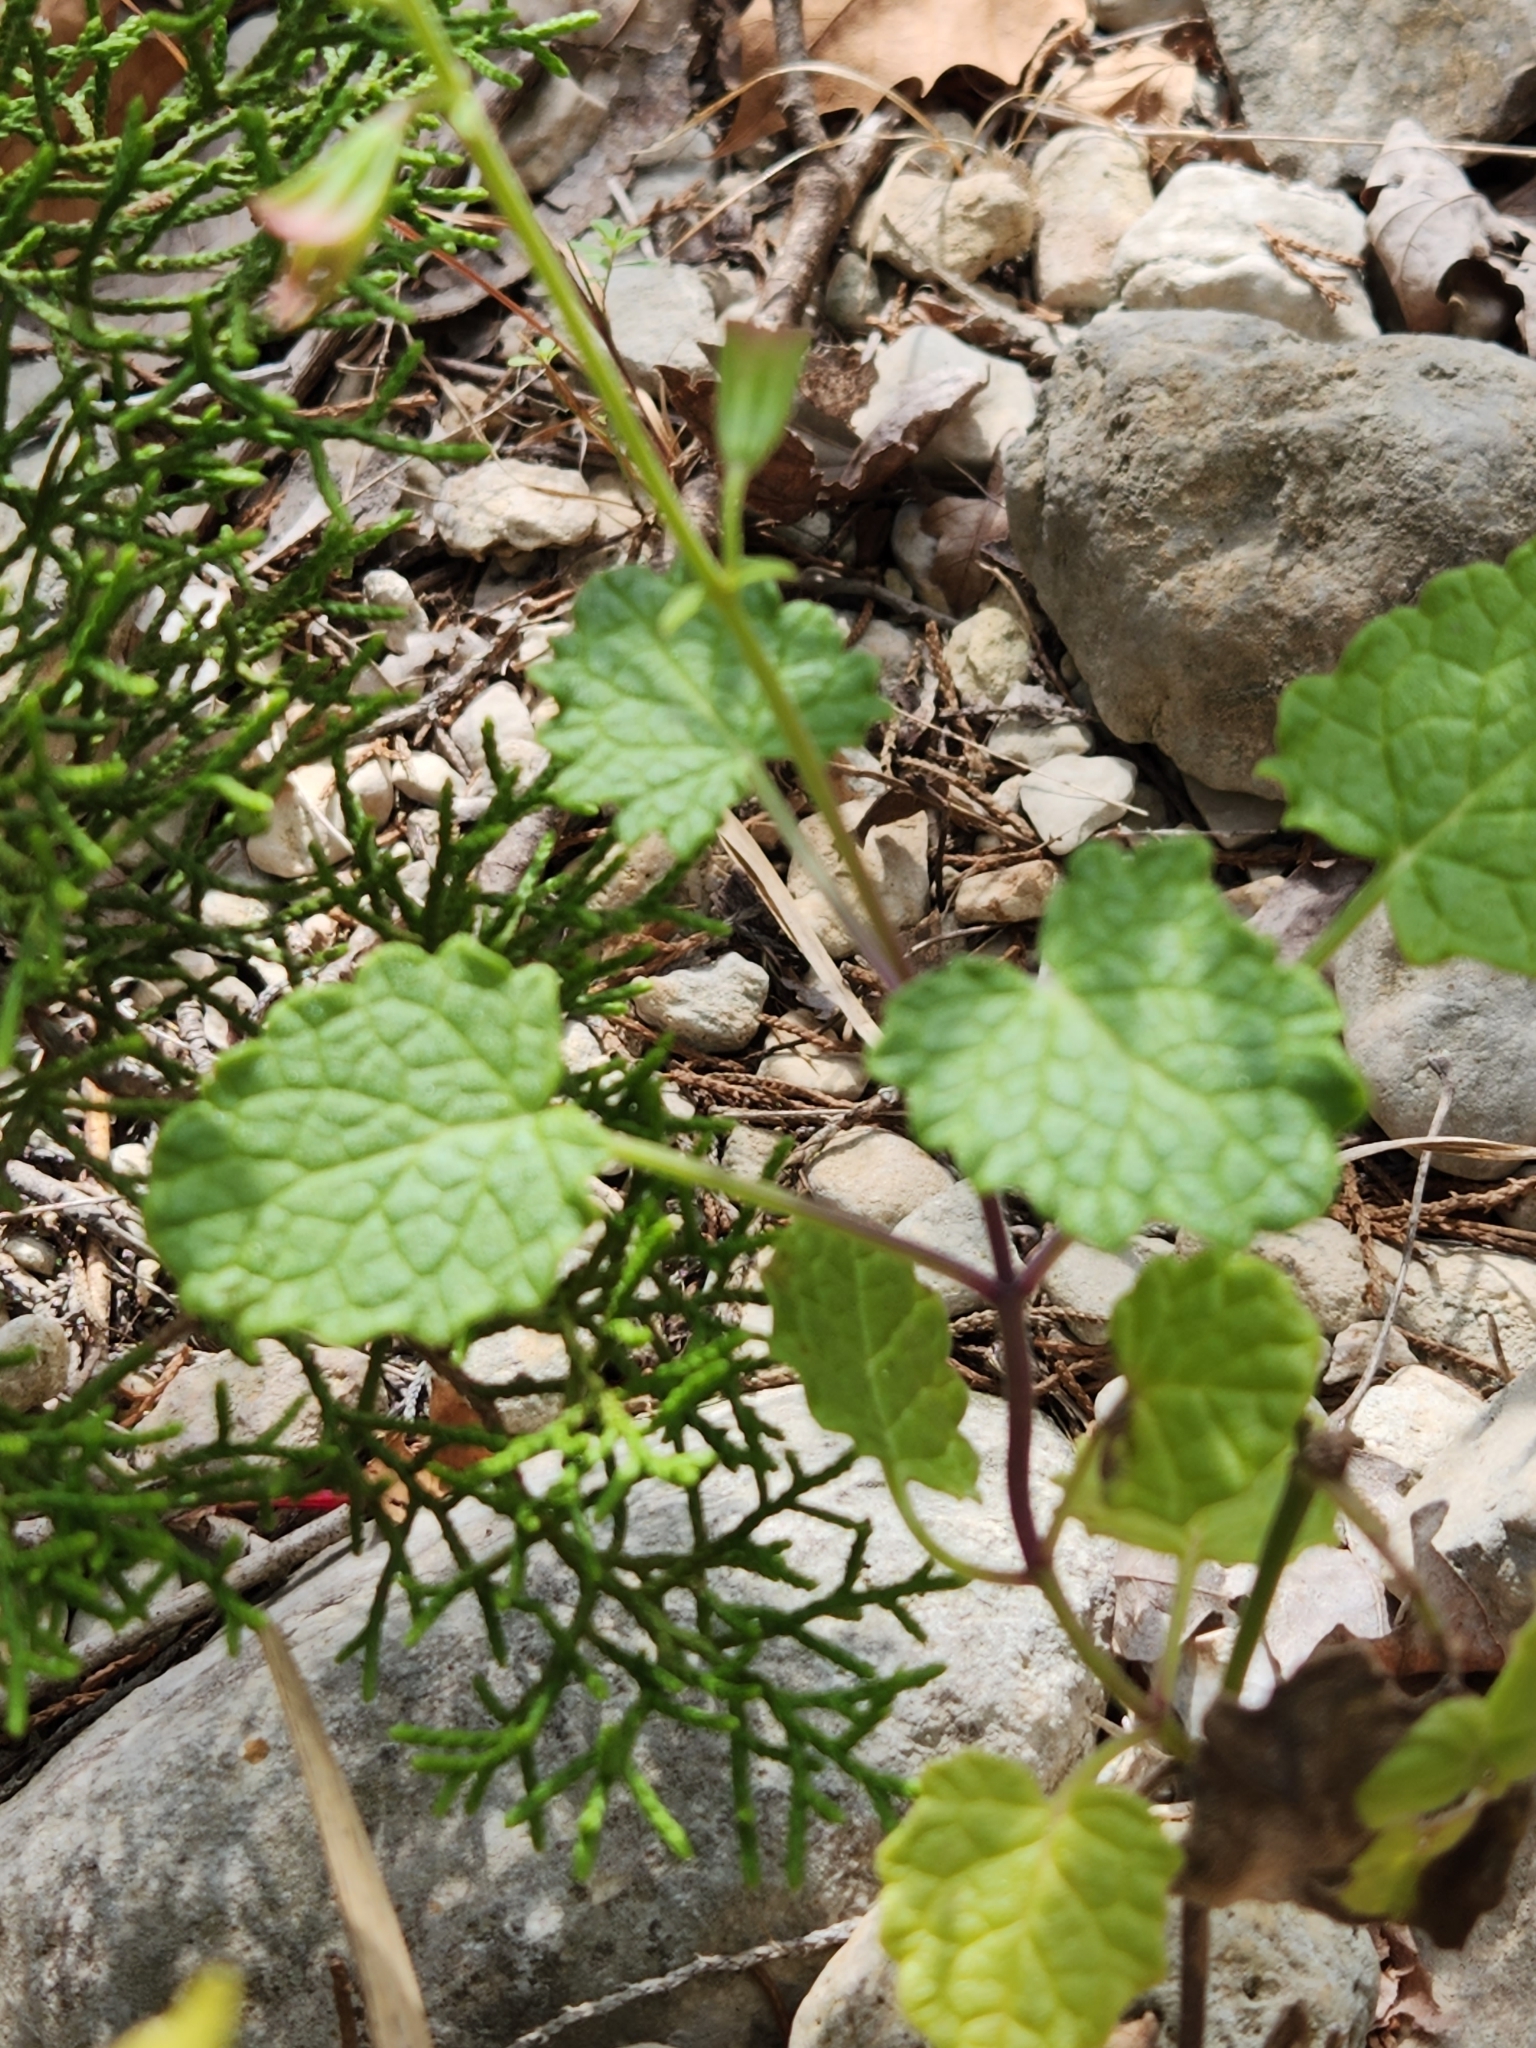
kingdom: Plantae
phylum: Tracheophyta
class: Magnoliopsida
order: Lamiales
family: Lamiaceae
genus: Salvia
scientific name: Salvia roemeriana
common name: Cedar sage
